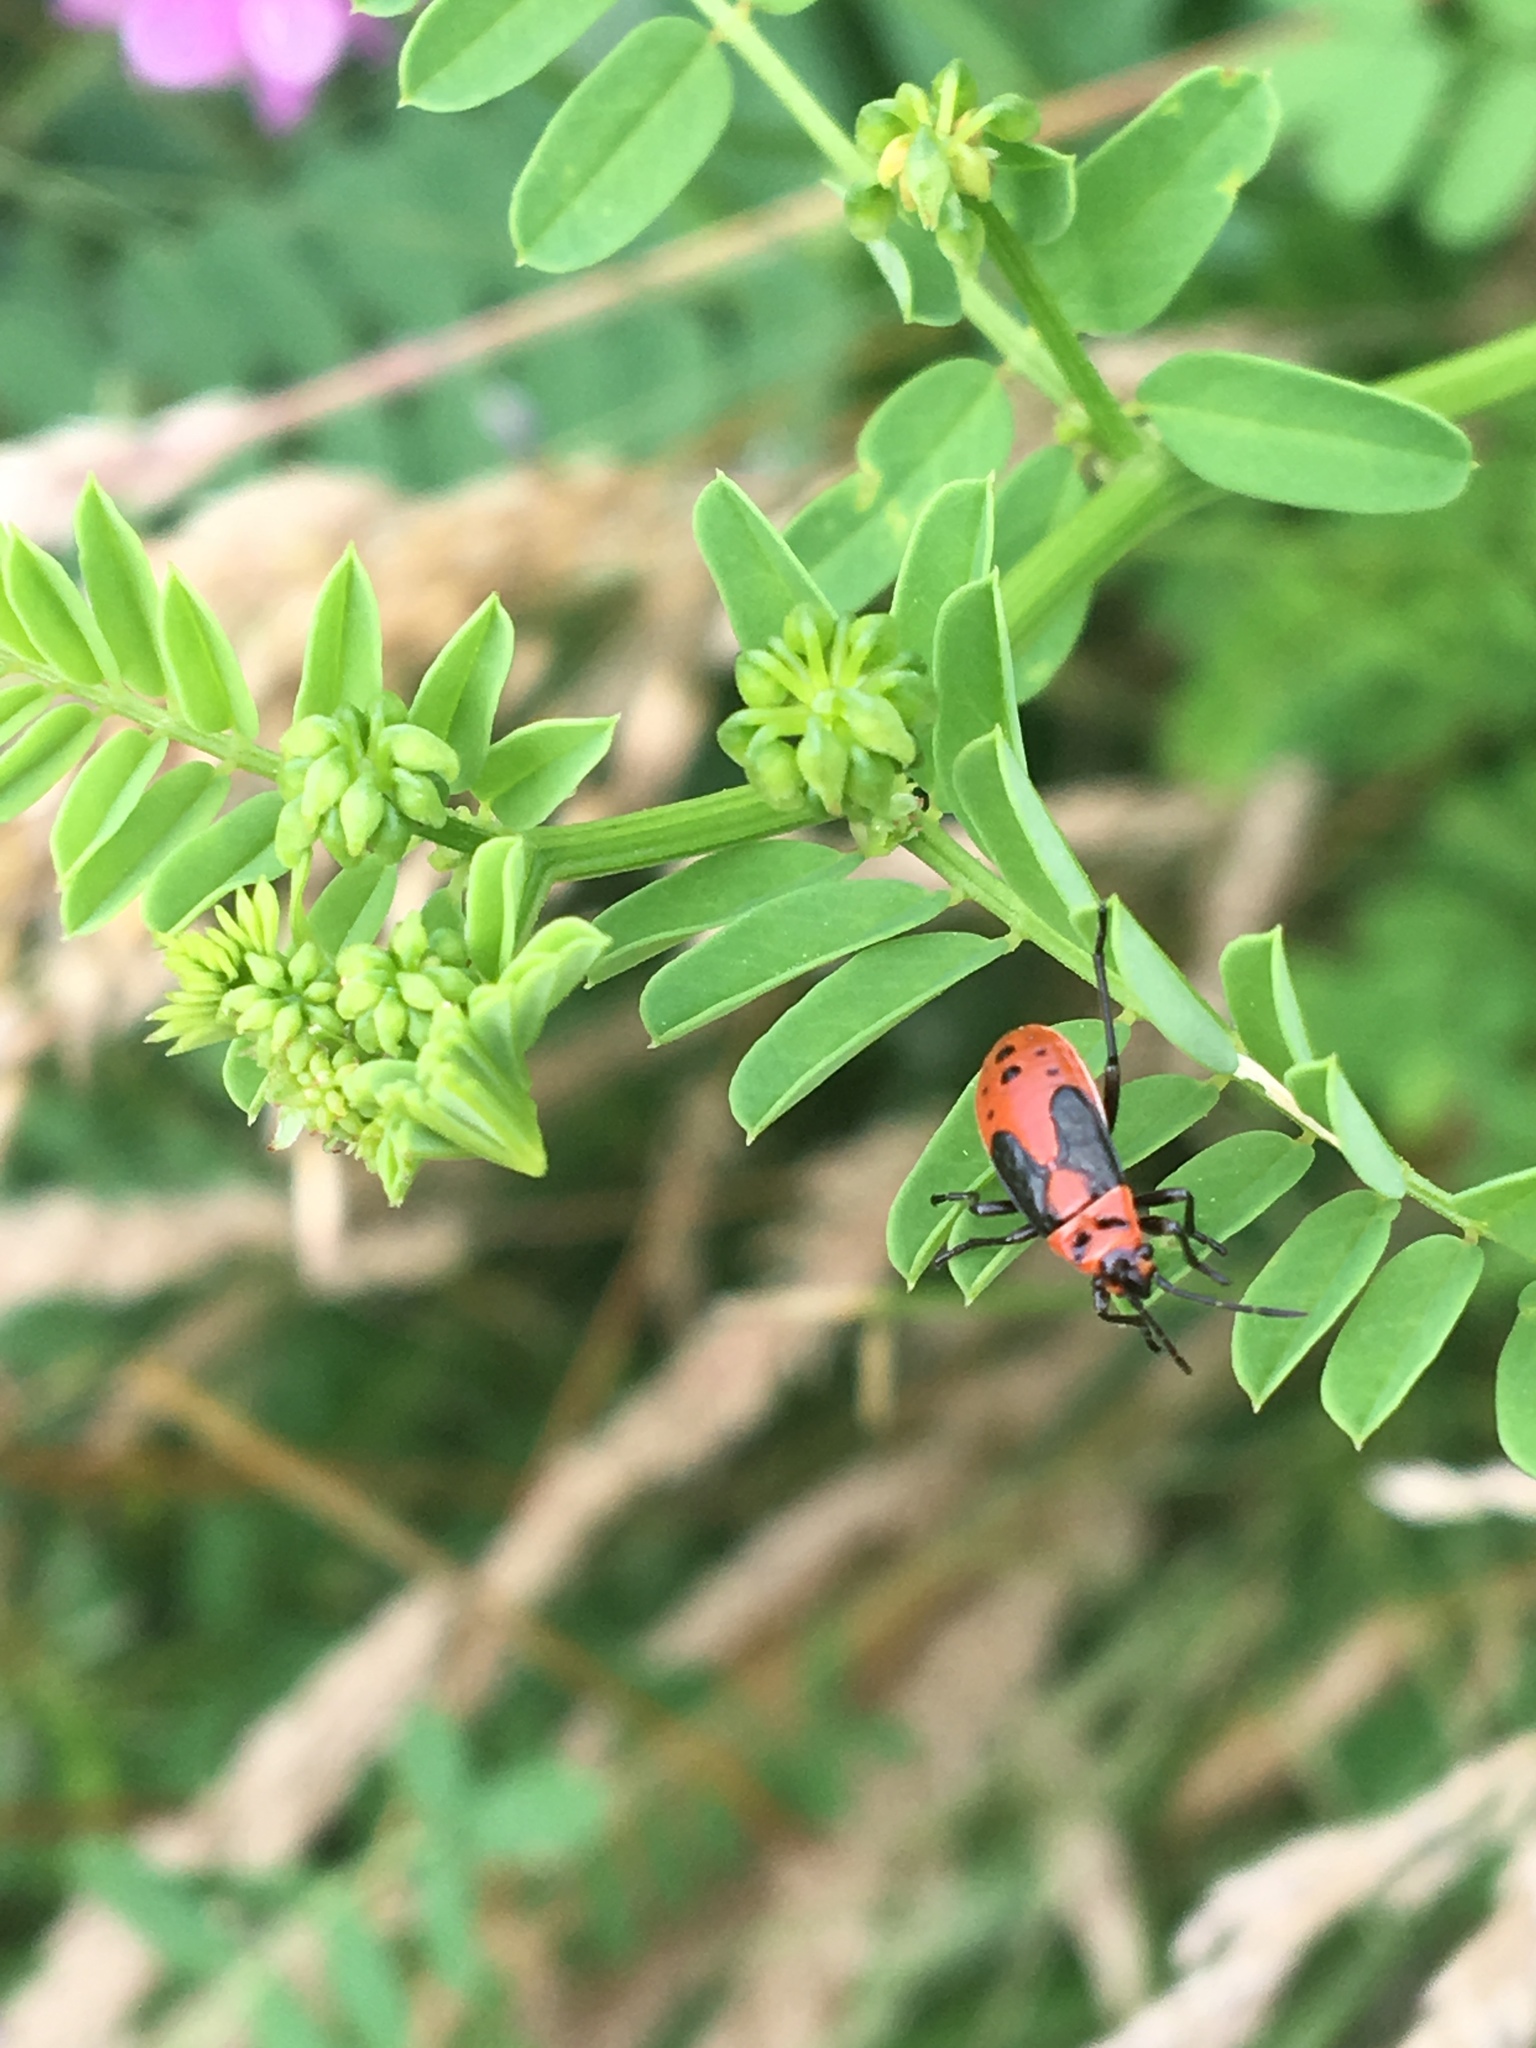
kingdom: Animalia
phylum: Arthropoda
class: Insecta
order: Hemiptera
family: Lygaeidae
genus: Lygaeus
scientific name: Lygaeus kalmii
